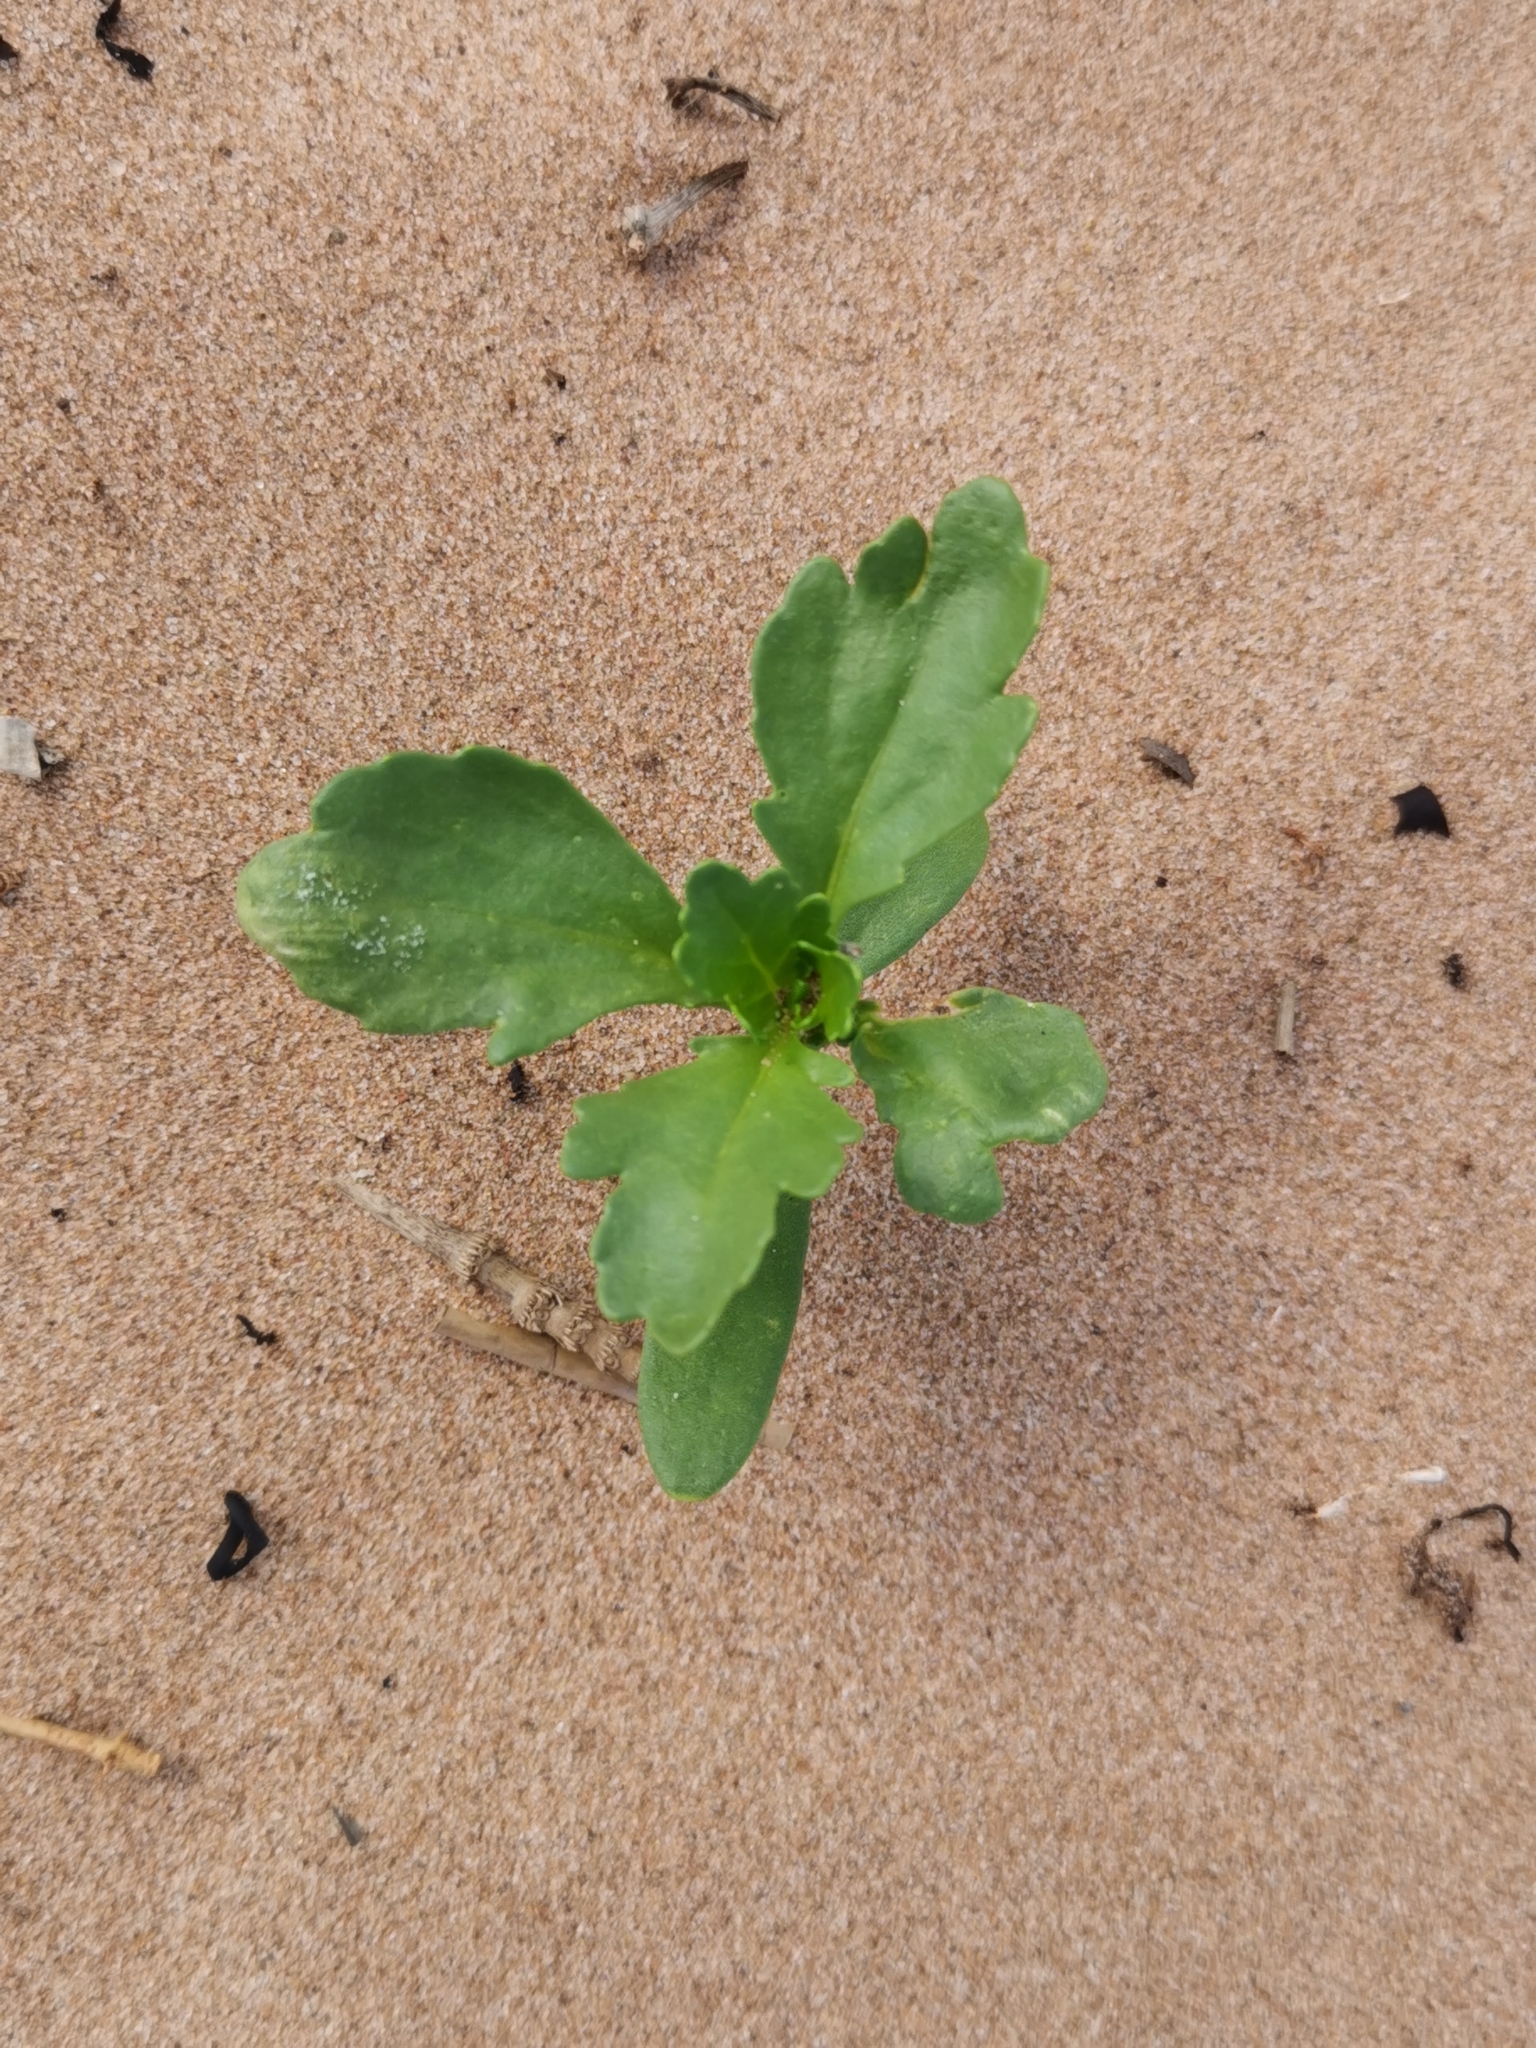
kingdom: Plantae
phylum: Tracheophyta
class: Magnoliopsida
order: Brassicales
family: Brassicaceae
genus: Cakile
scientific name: Cakile edentula
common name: American sea rocket
